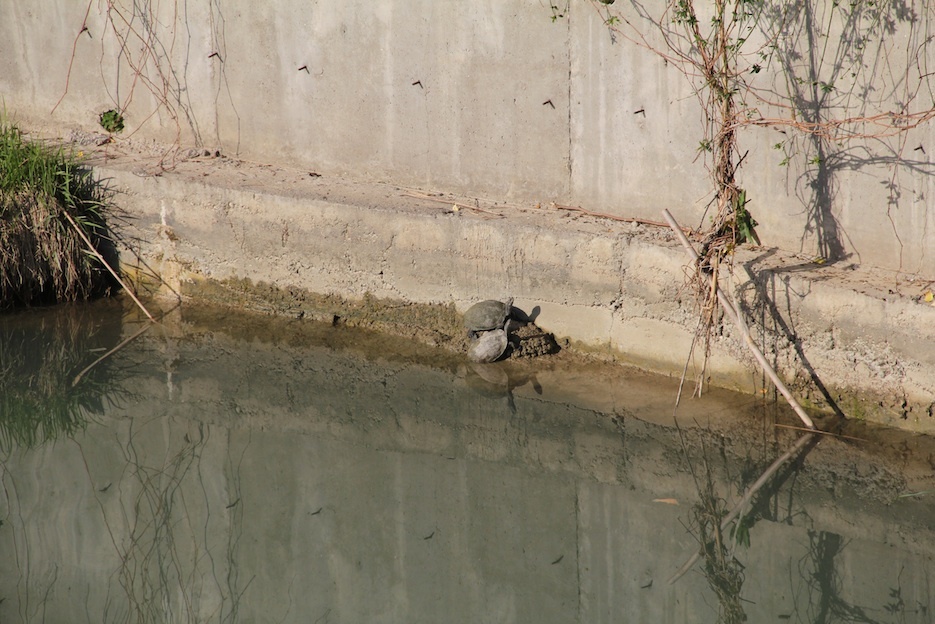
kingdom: Animalia
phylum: Chordata
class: Testudines
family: Geoemydidae
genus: Mauremys
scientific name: Mauremys rivulata
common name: Western caspian turtle
